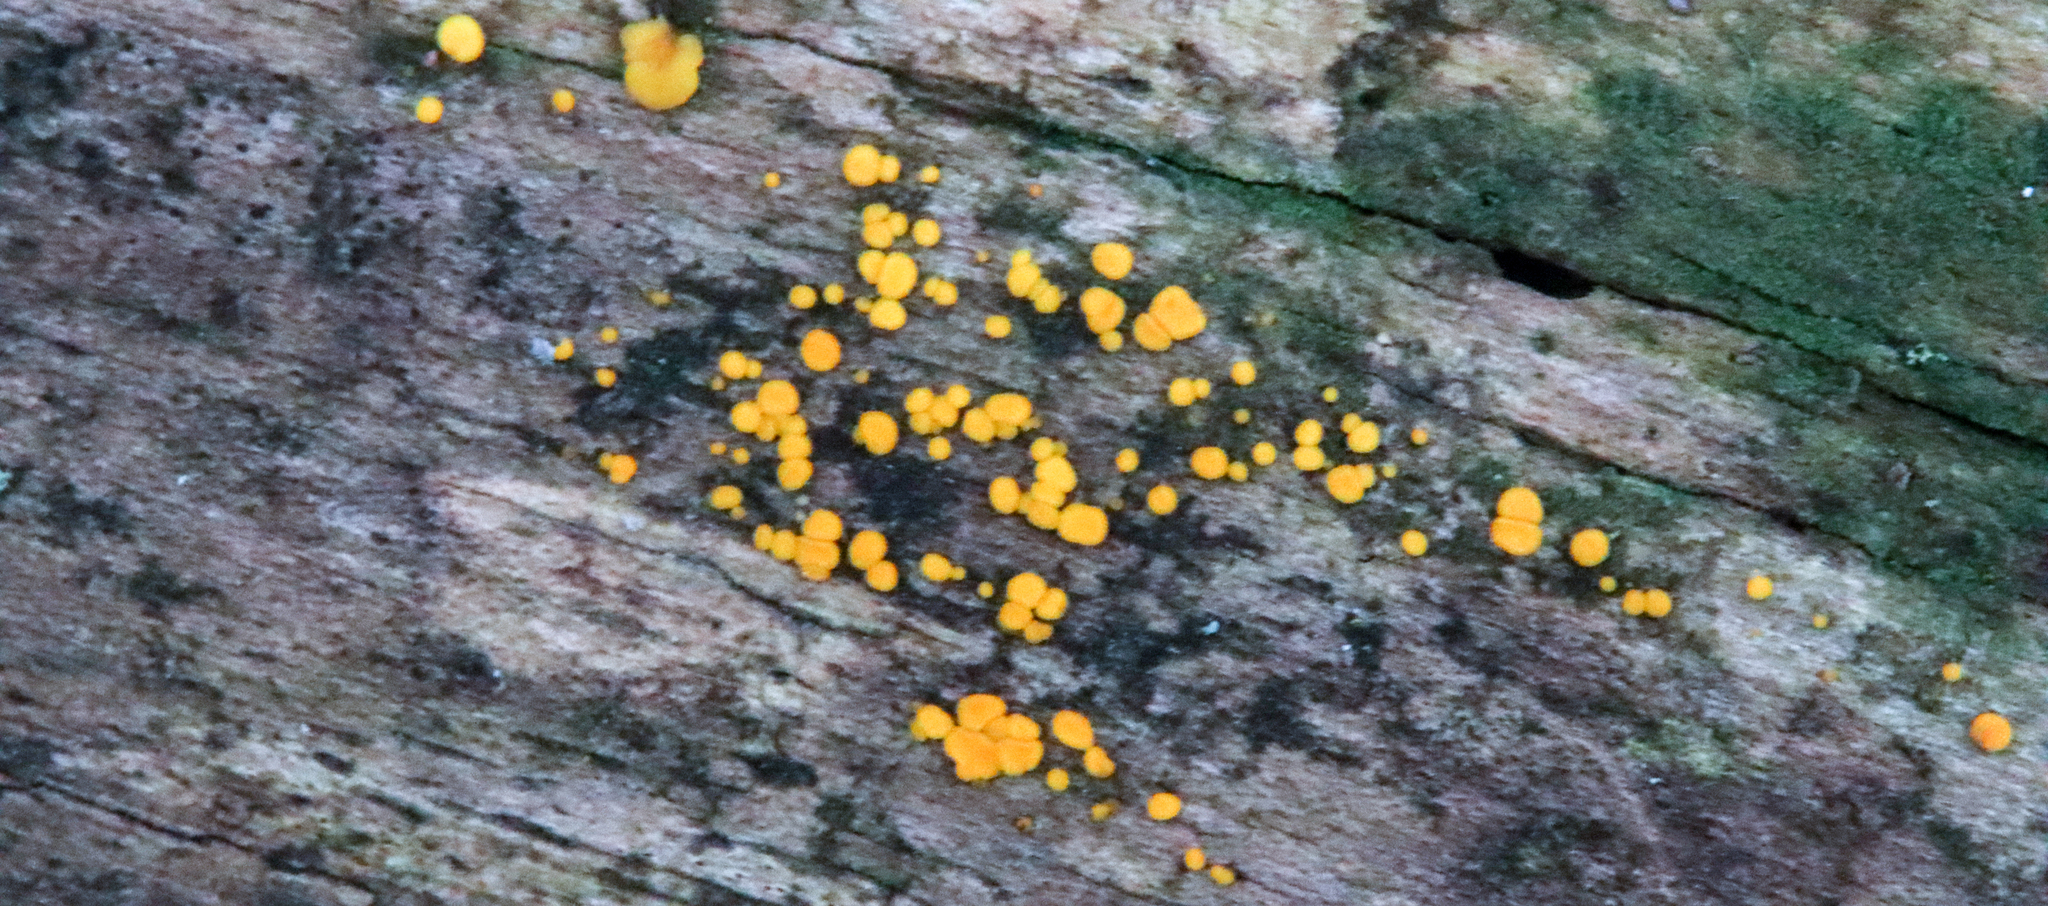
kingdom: Fungi
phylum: Ascomycota
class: Leotiomycetes
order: Helotiales
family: Pezizellaceae
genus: Calycina
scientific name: Calycina citrina
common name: Yellow fairy cups
